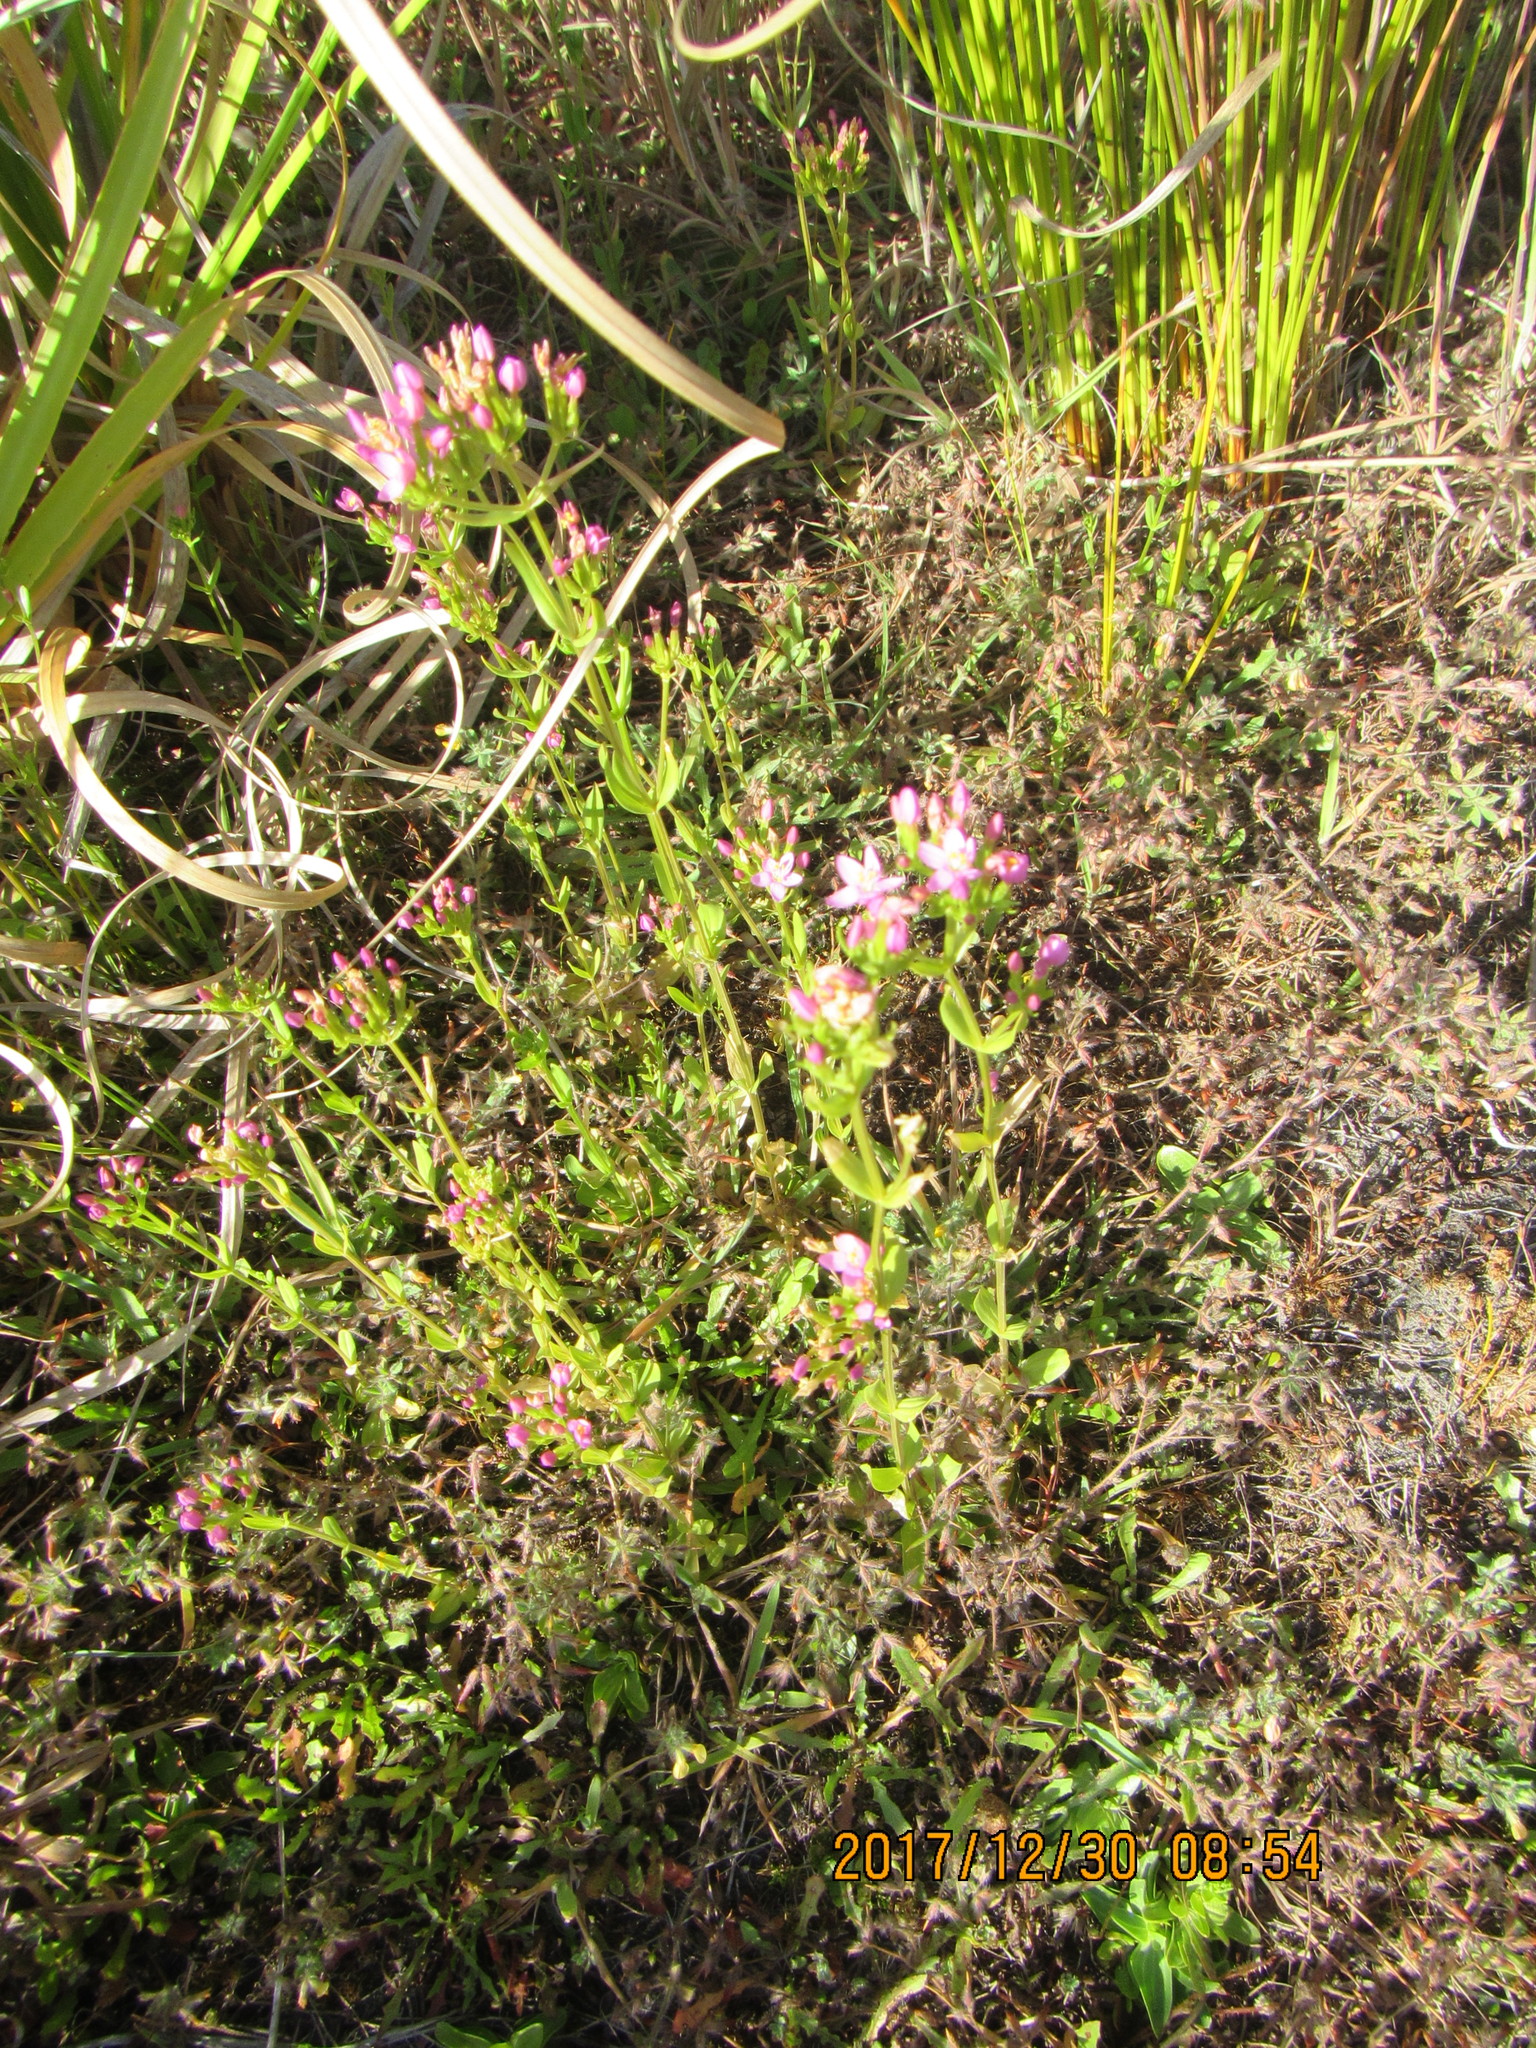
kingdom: Plantae
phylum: Tracheophyta
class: Magnoliopsida
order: Gentianales
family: Gentianaceae
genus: Centaurium
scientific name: Centaurium erythraea
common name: Common centaury
